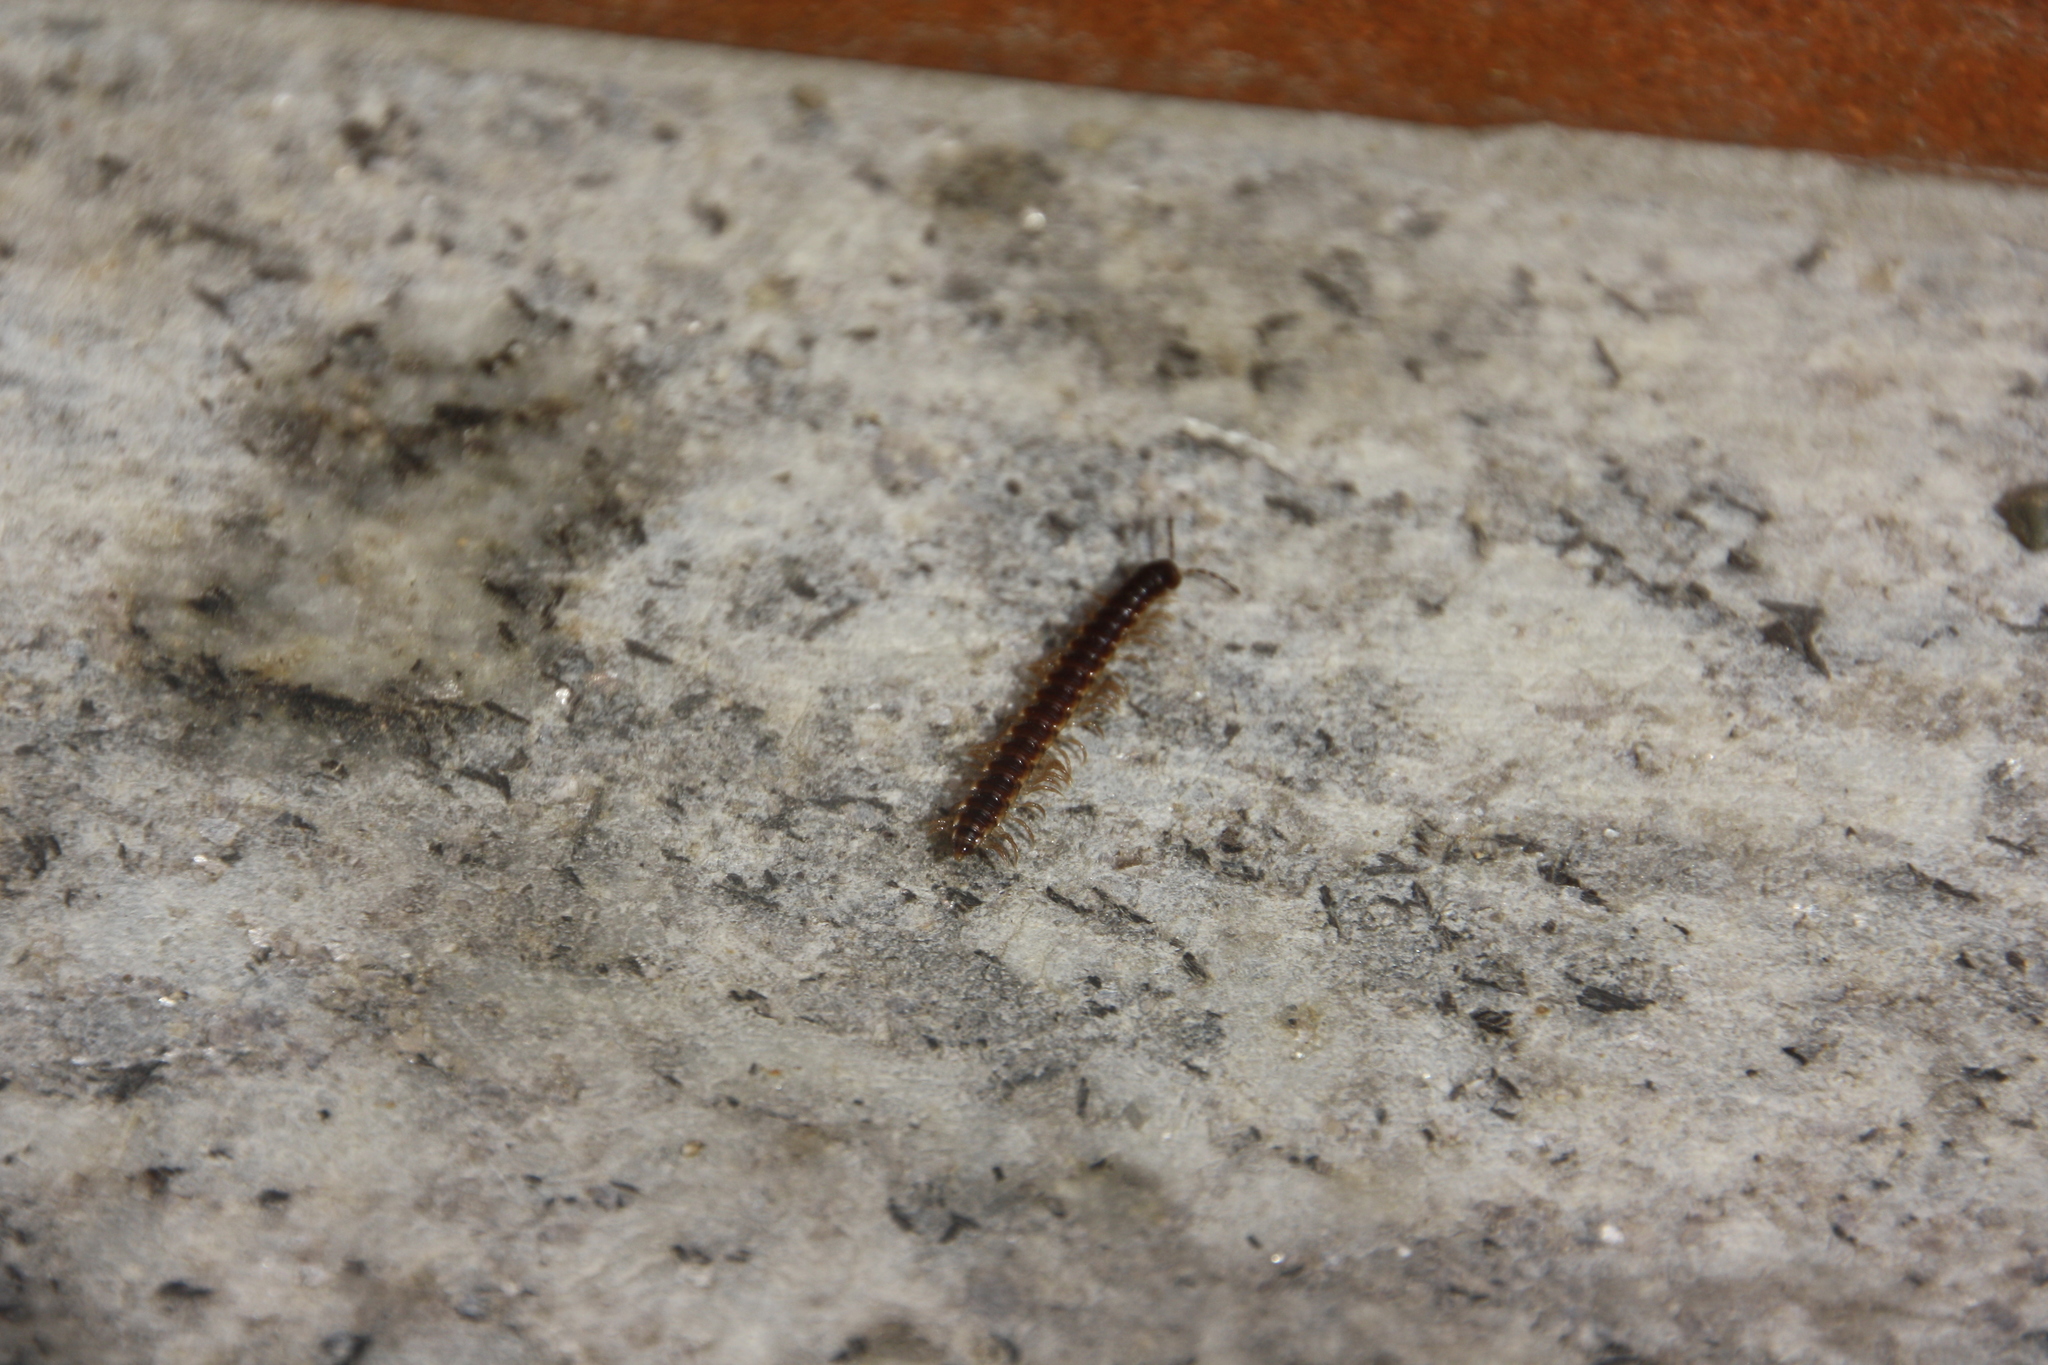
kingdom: Animalia
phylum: Arthropoda
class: Diplopoda
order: Polydesmida
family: Paradoxosomatidae
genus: Oxidus
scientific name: Oxidus gracilis
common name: Greenhouse millipede
